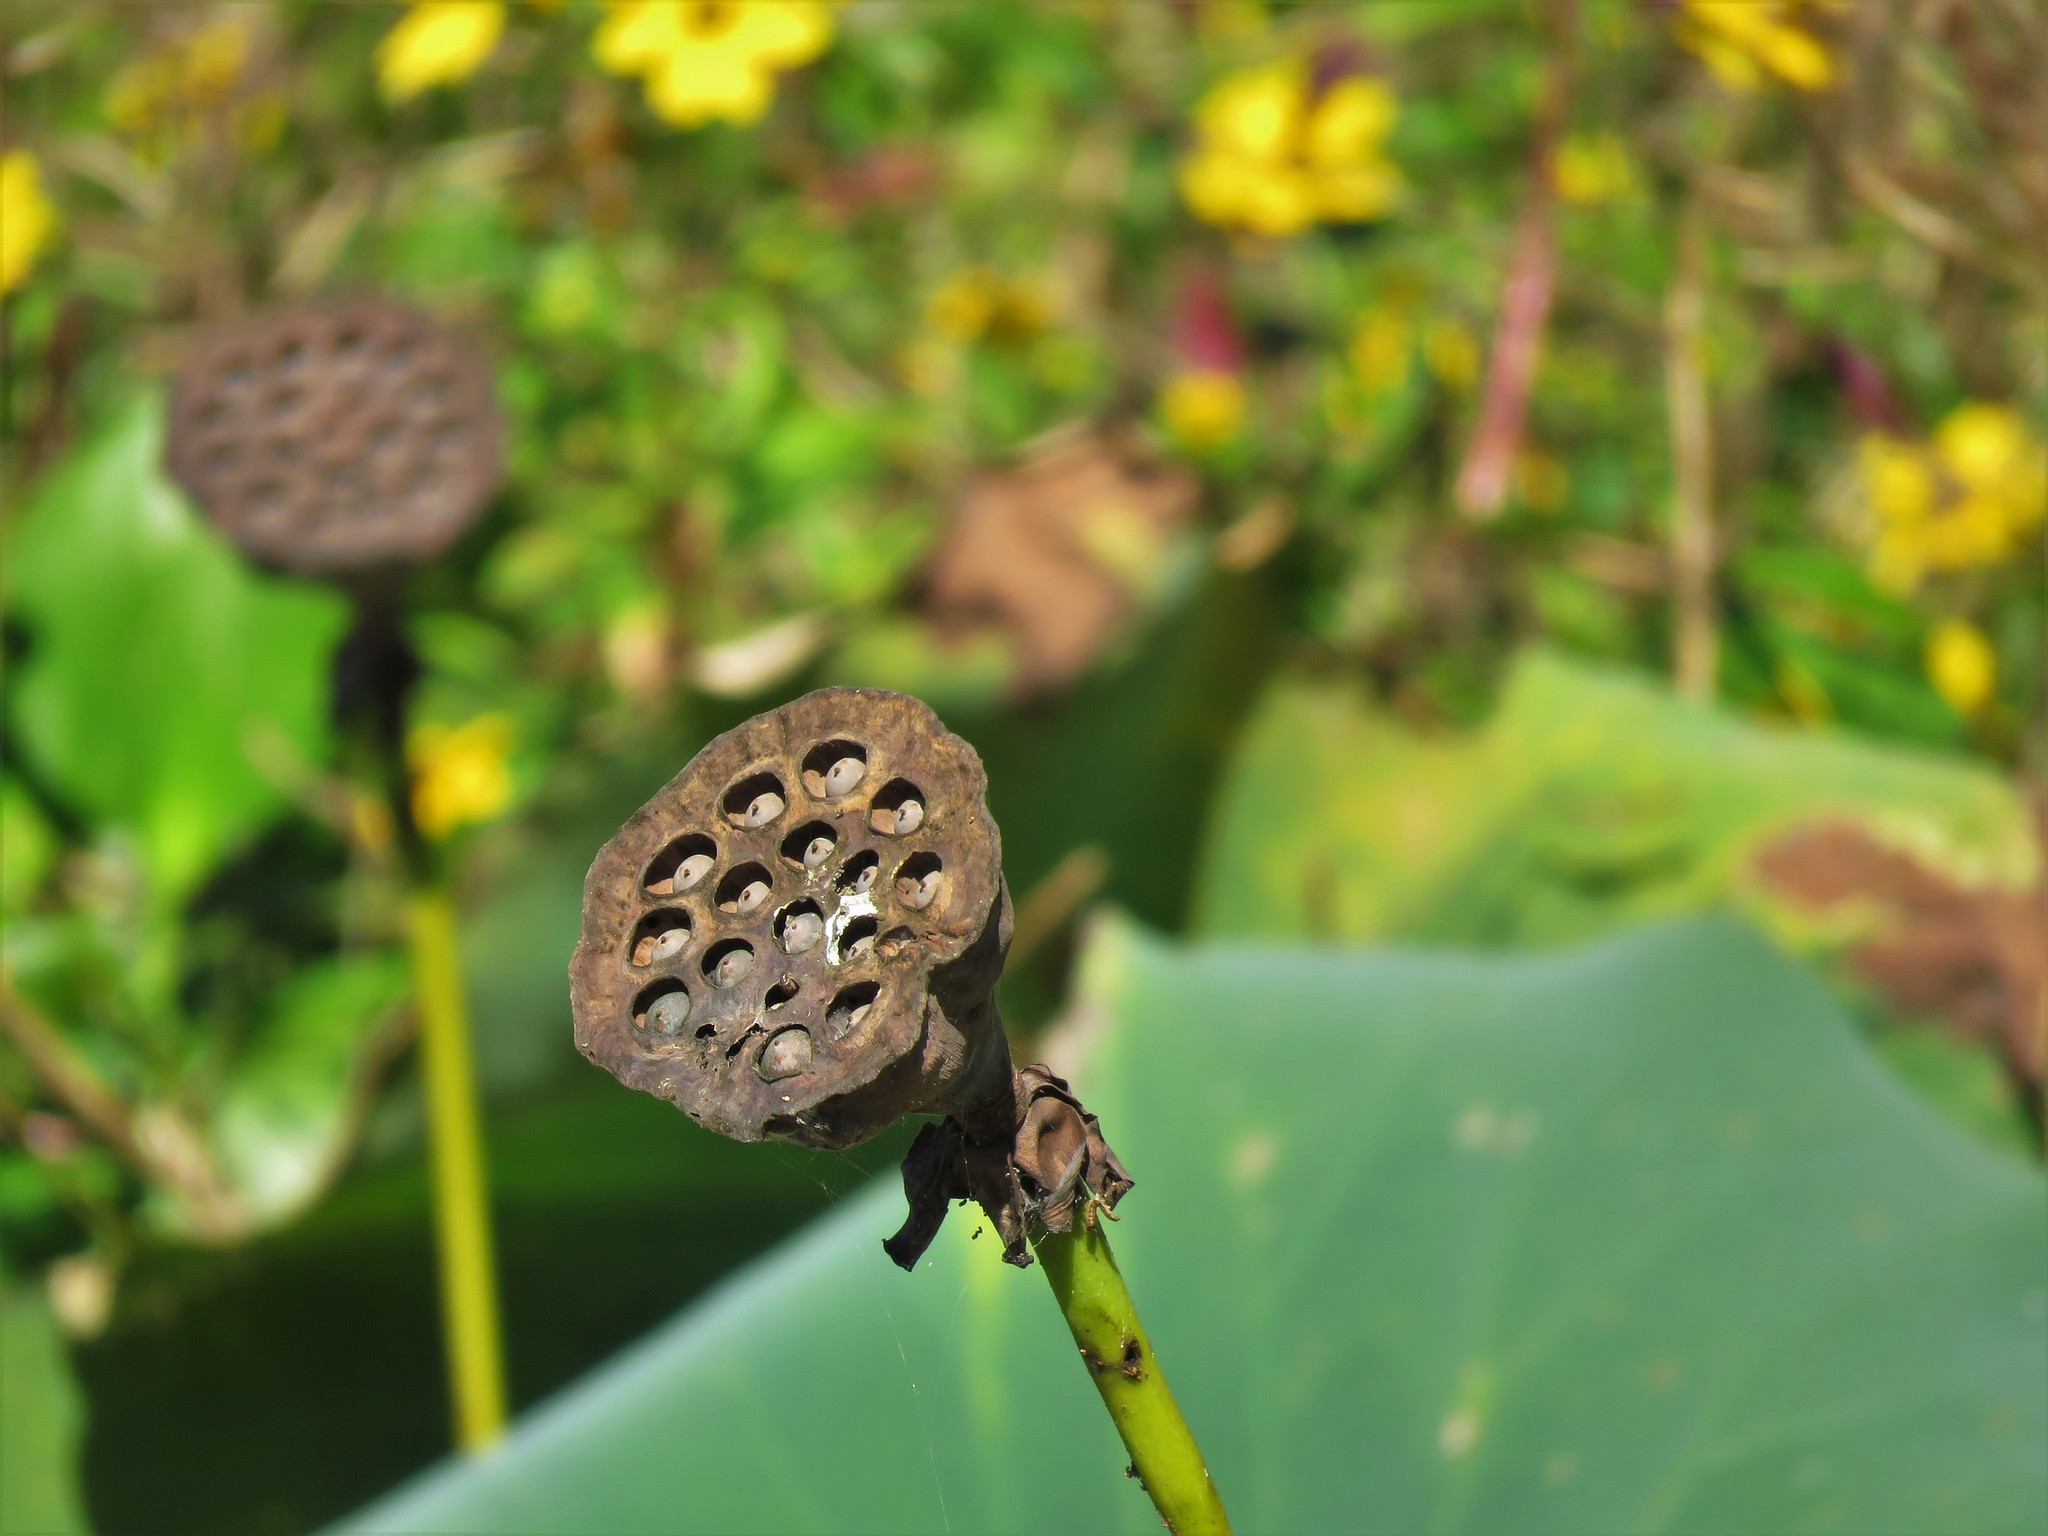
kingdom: Plantae
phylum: Tracheophyta
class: Magnoliopsida
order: Proteales
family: Nelumbonaceae
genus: Nelumbo
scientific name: Nelumbo lutea
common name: American lotus
